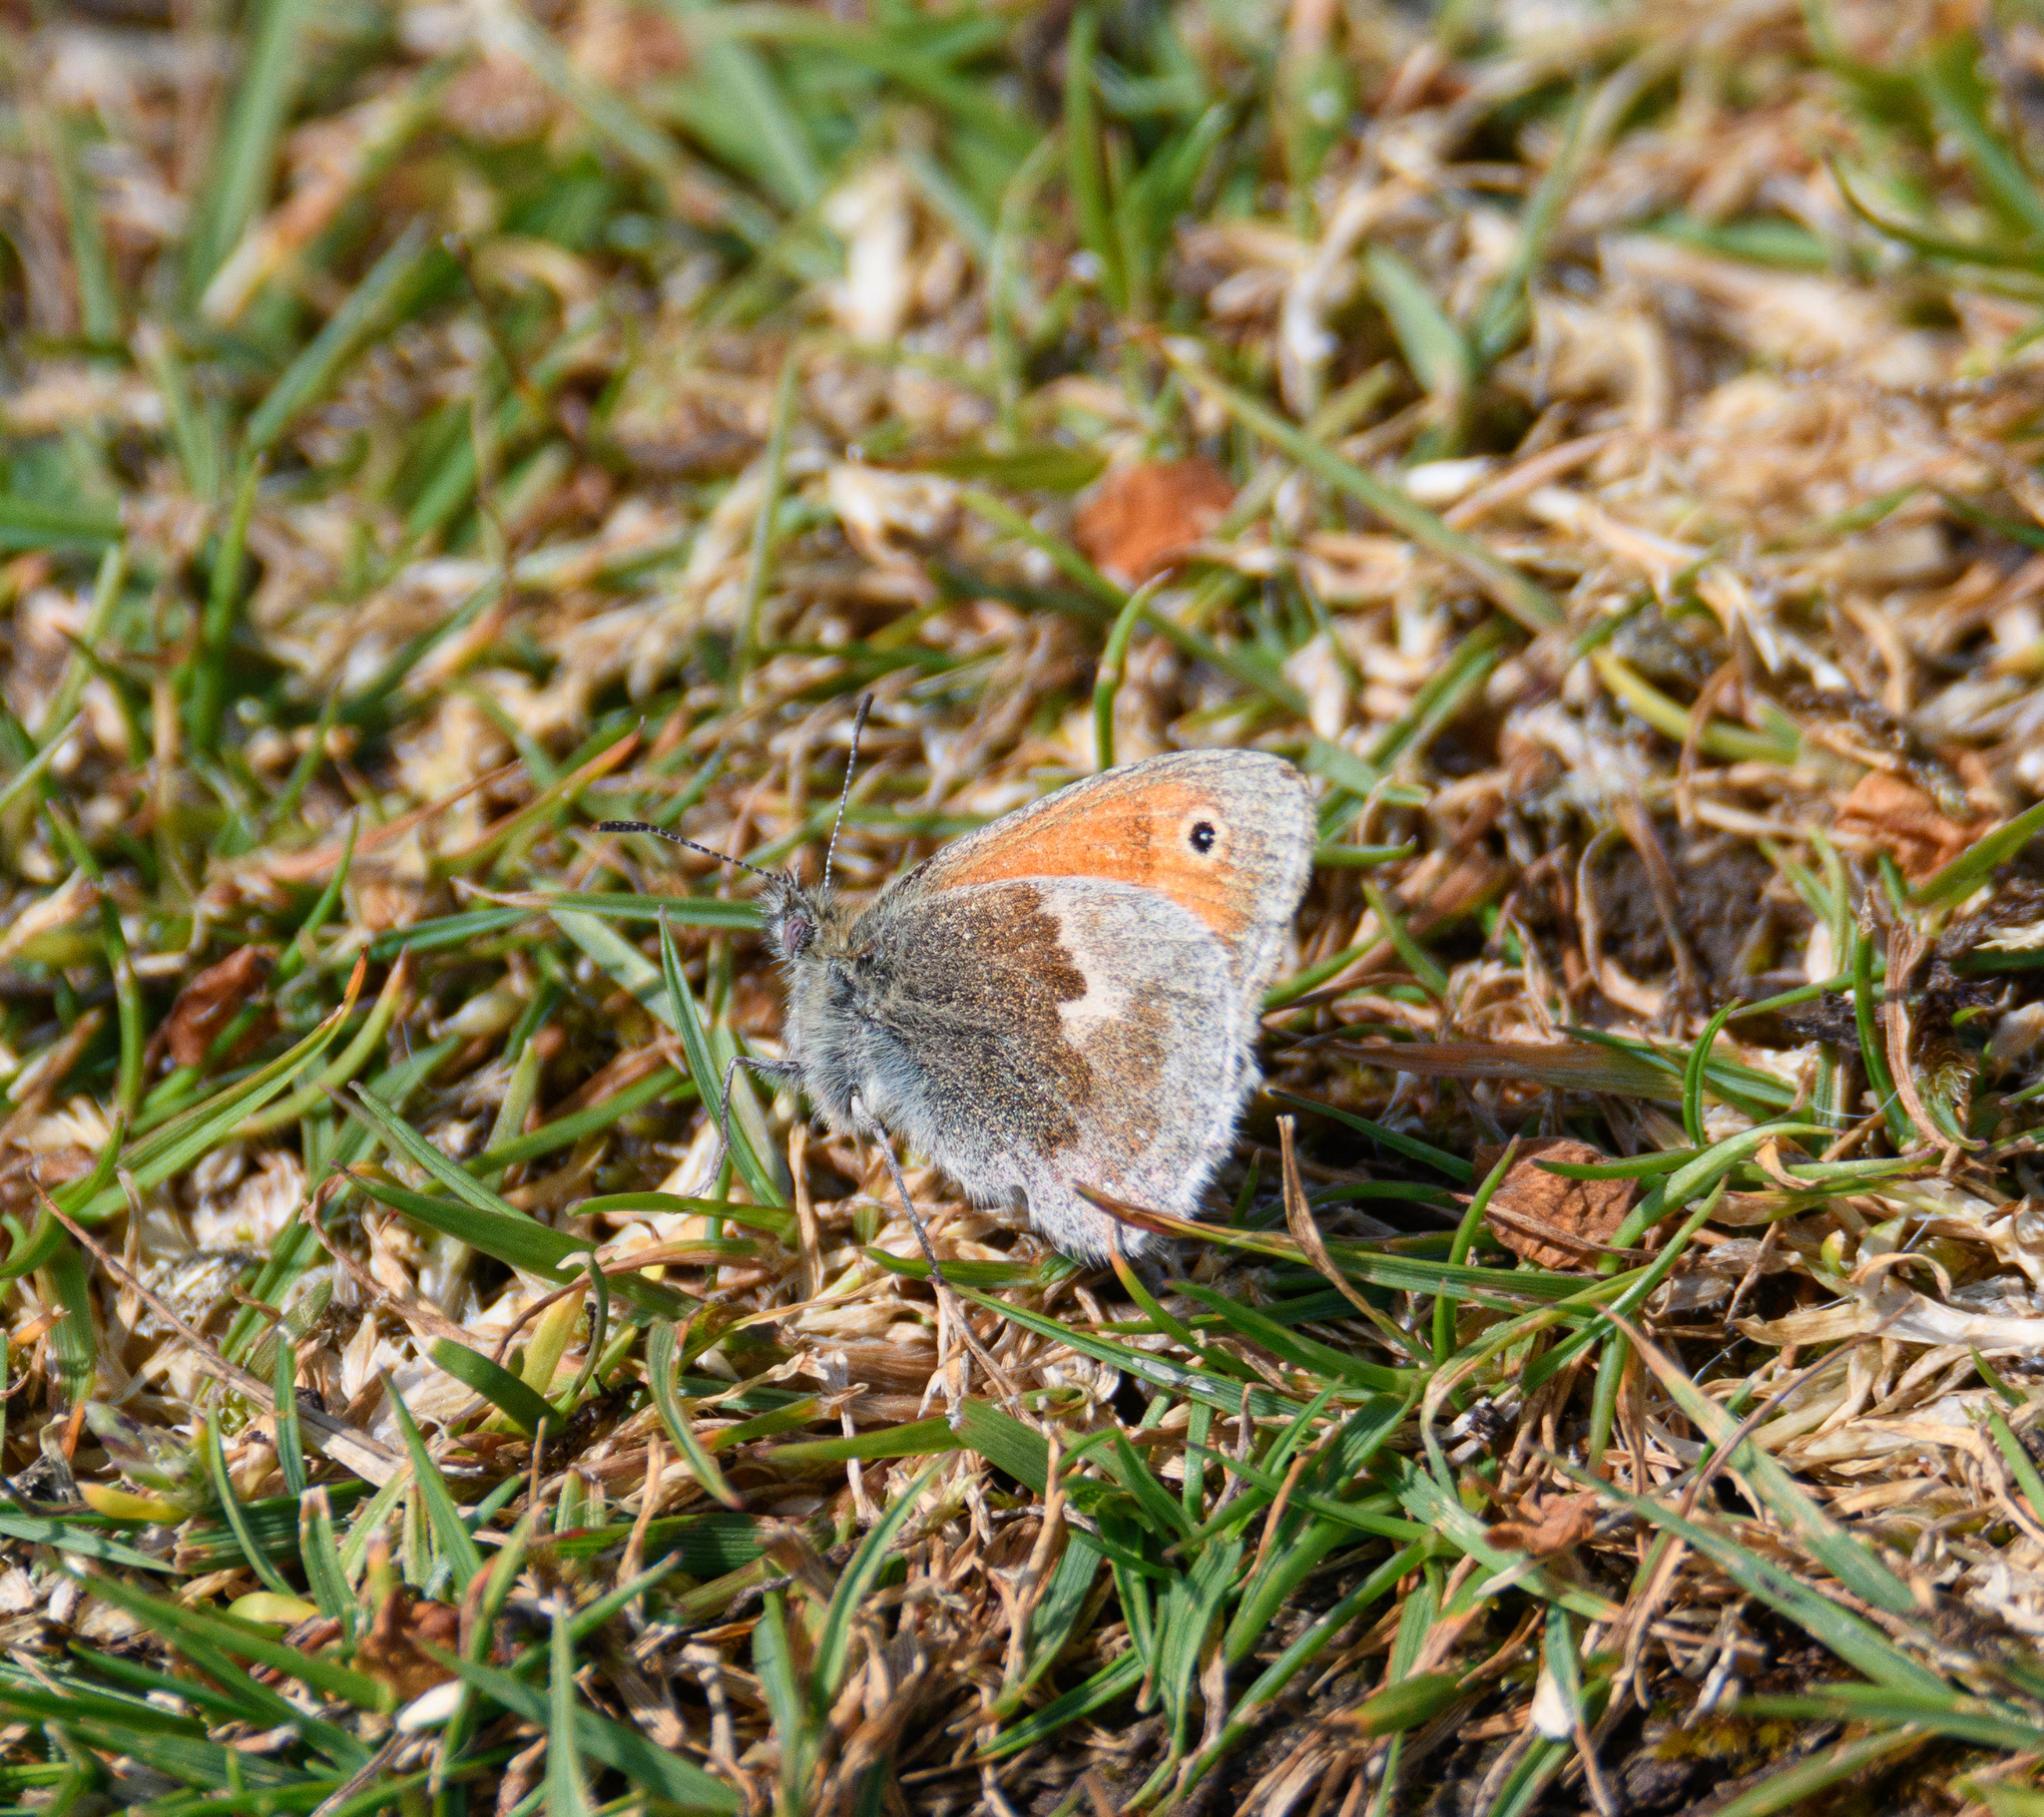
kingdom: Animalia
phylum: Arthropoda
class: Insecta
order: Lepidoptera
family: Nymphalidae
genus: Coenonympha
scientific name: Coenonympha pamphilus
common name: Small heath
